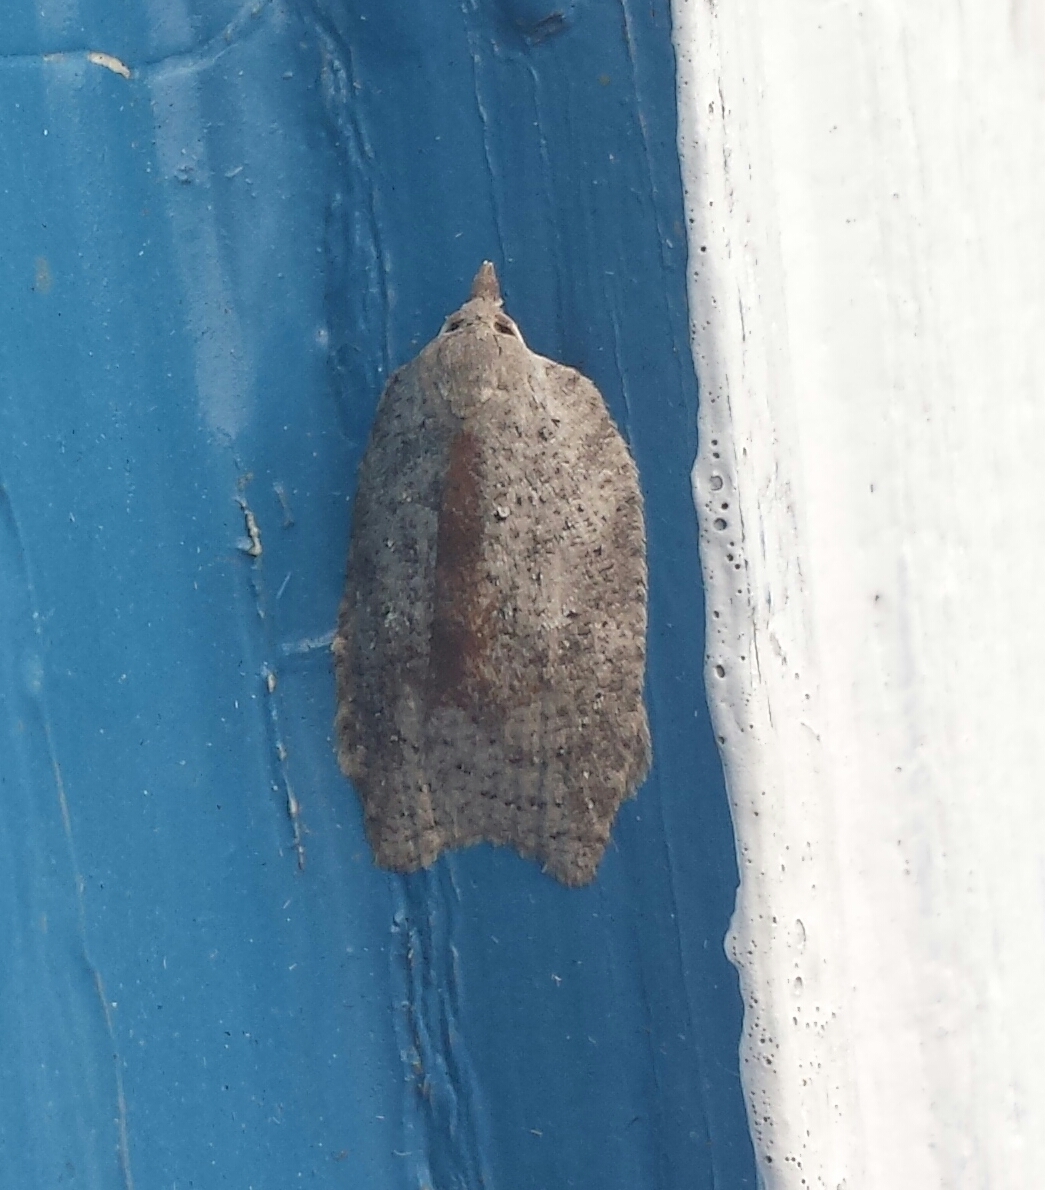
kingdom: Animalia
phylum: Arthropoda
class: Insecta
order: Lepidoptera
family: Tortricidae
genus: Amorbia
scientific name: Amorbia humerosana
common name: White-lined leafroller moth
